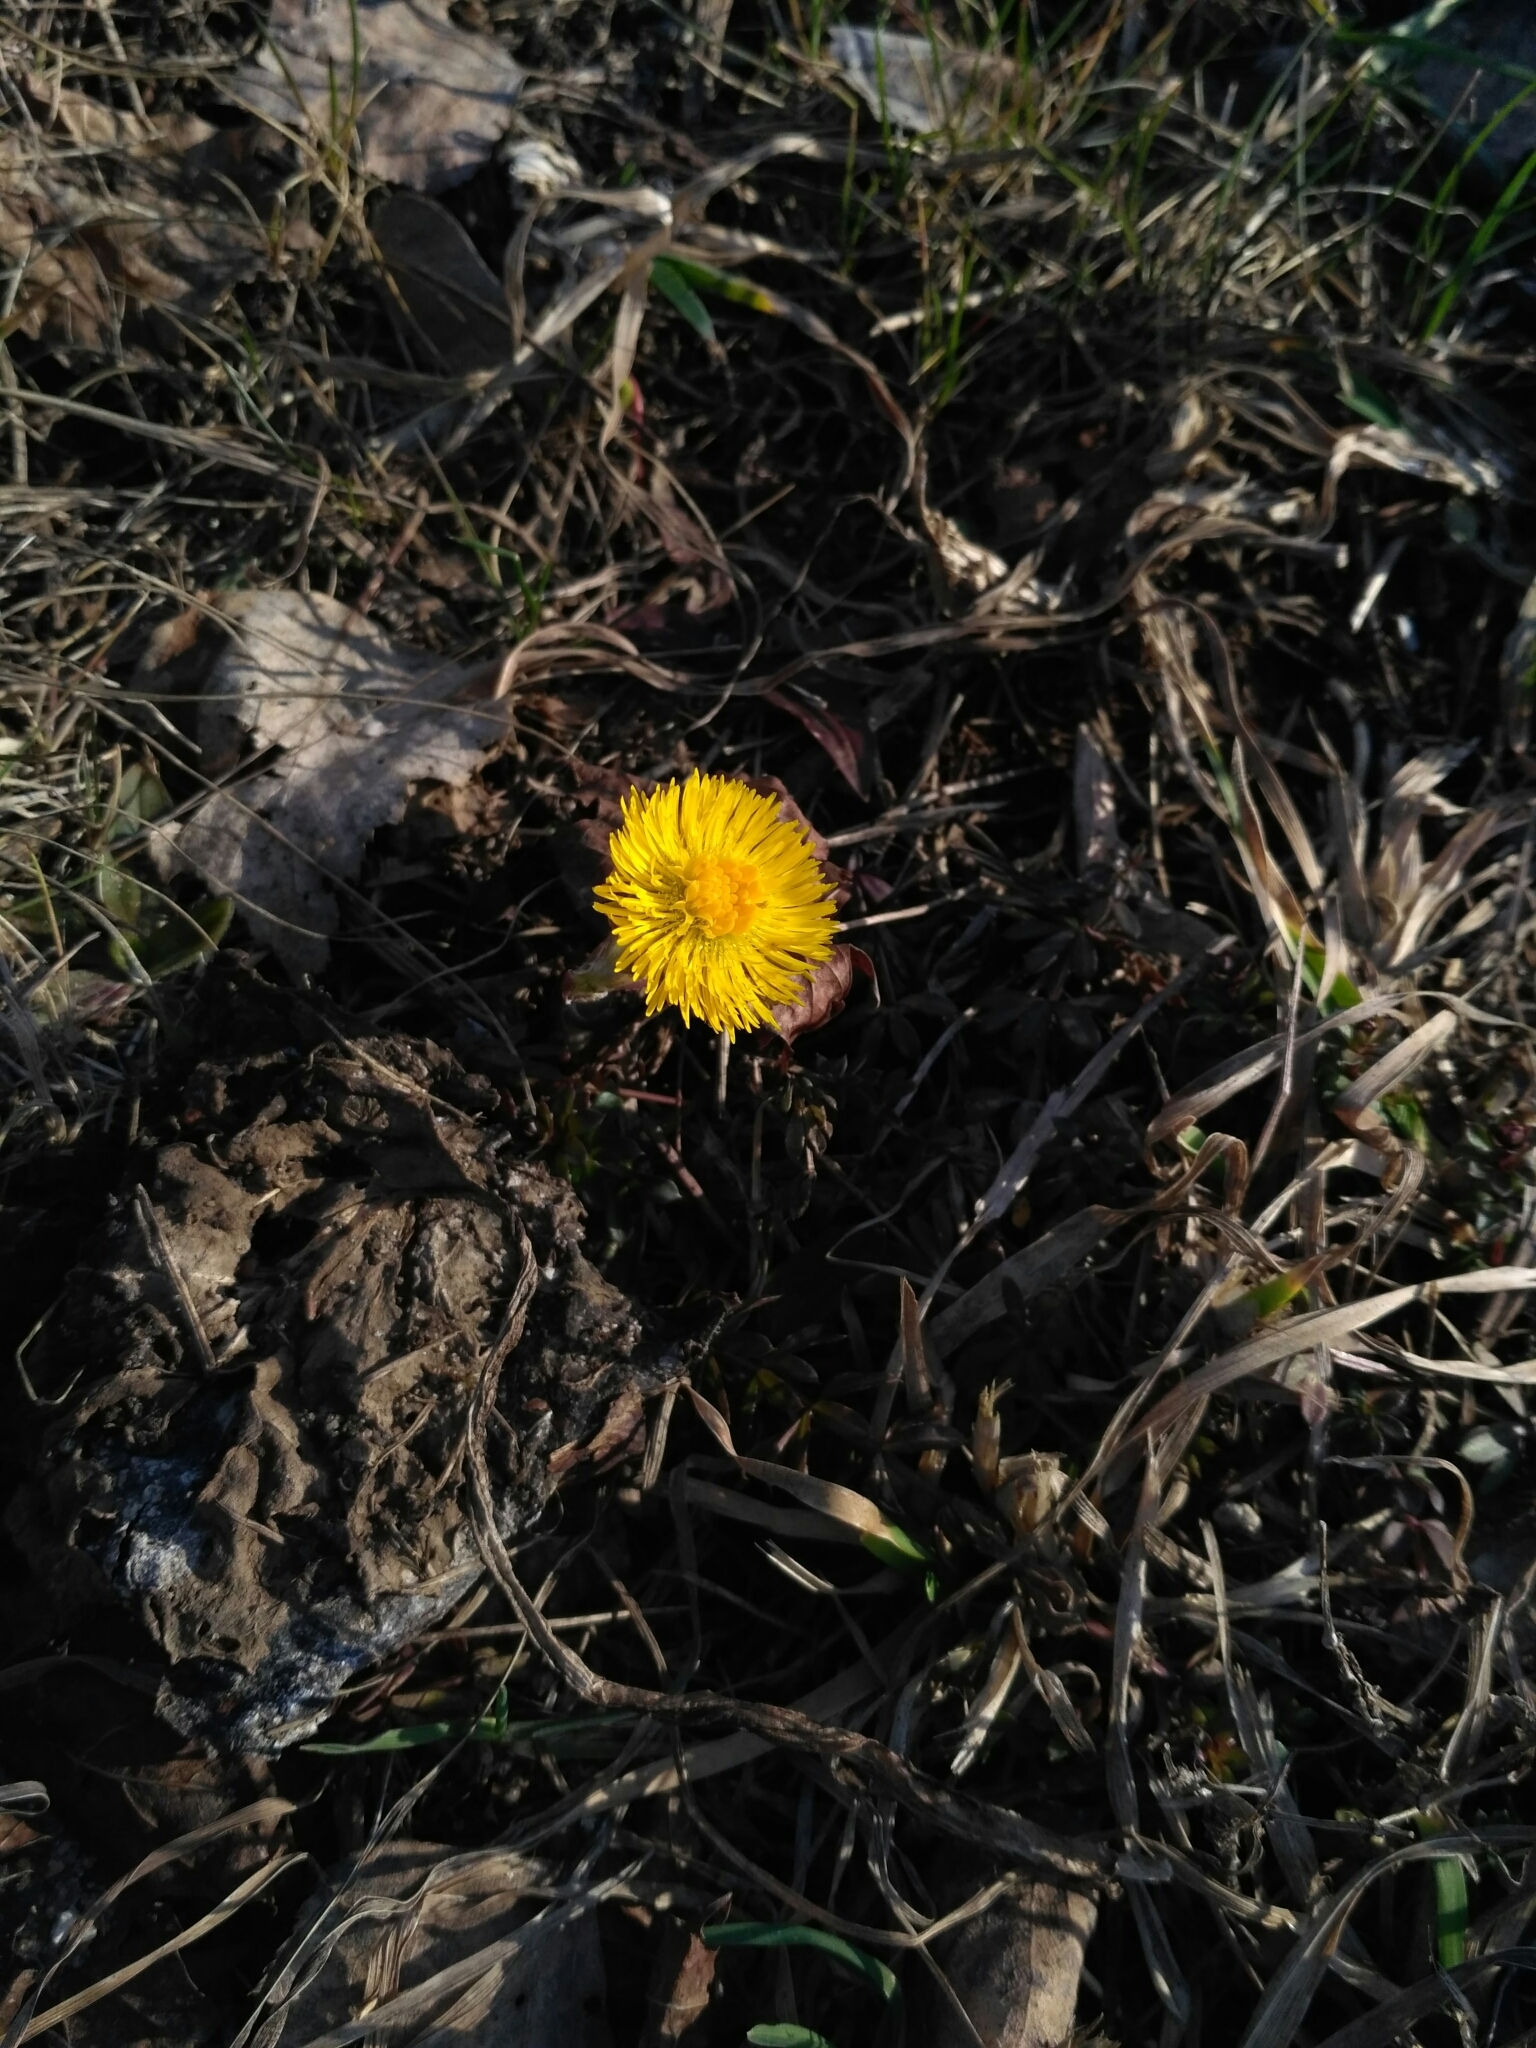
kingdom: Plantae
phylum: Tracheophyta
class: Magnoliopsida
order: Asterales
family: Asteraceae
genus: Tussilago
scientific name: Tussilago farfara
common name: Coltsfoot
